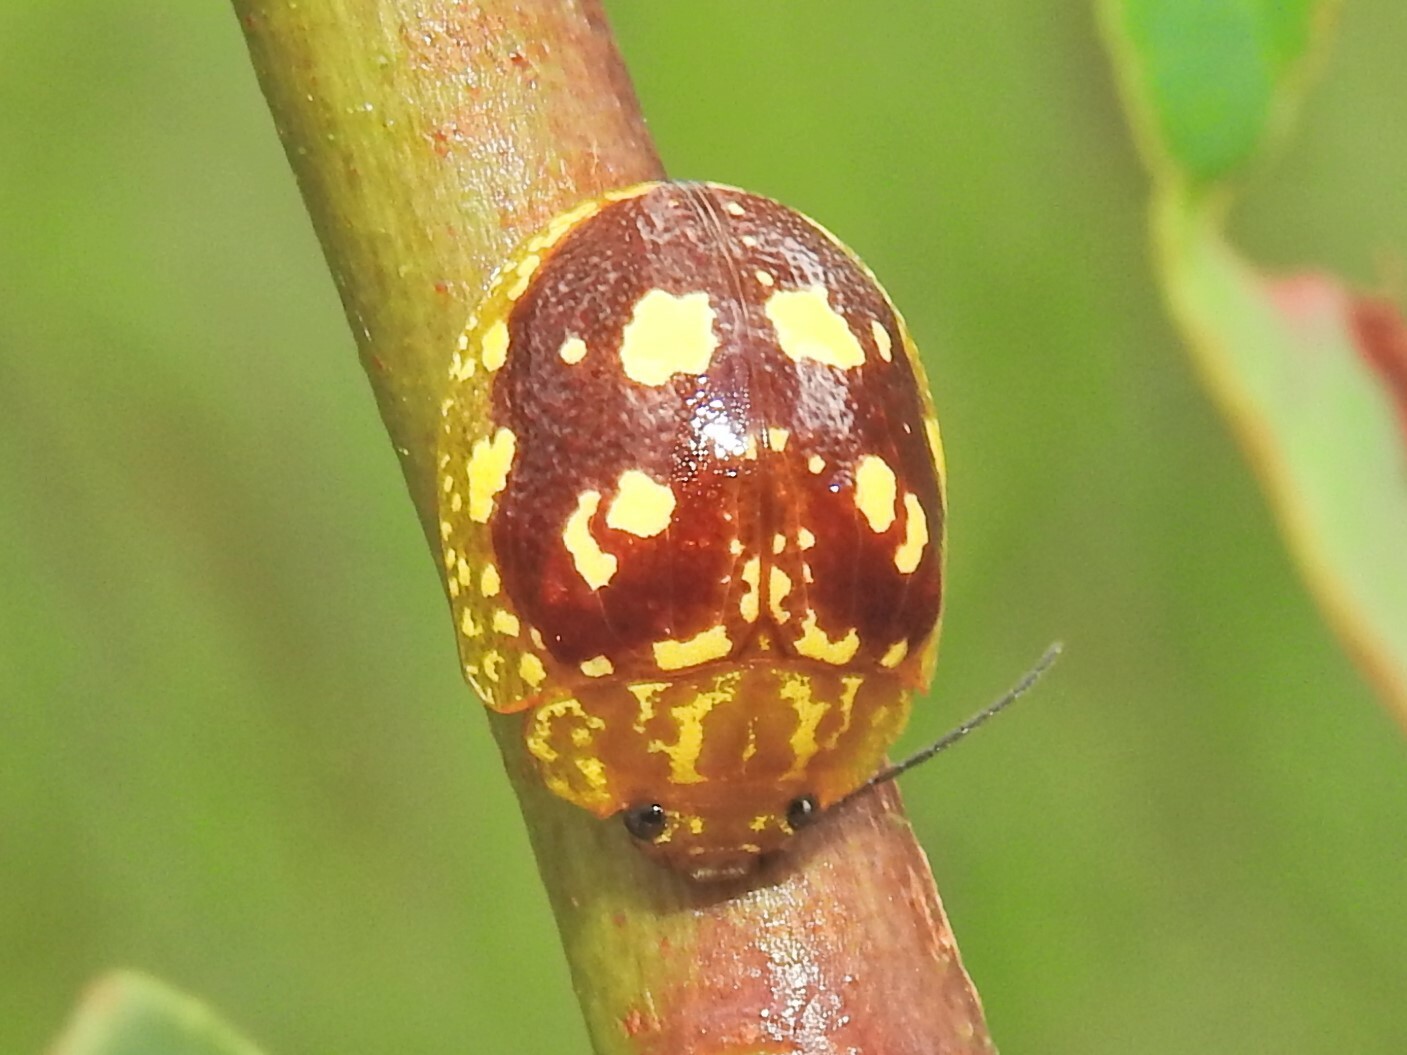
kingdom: Animalia
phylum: Arthropoda
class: Insecta
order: Coleoptera
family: Chrysomelidae
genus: Paropsis
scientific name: Paropsis maculata
